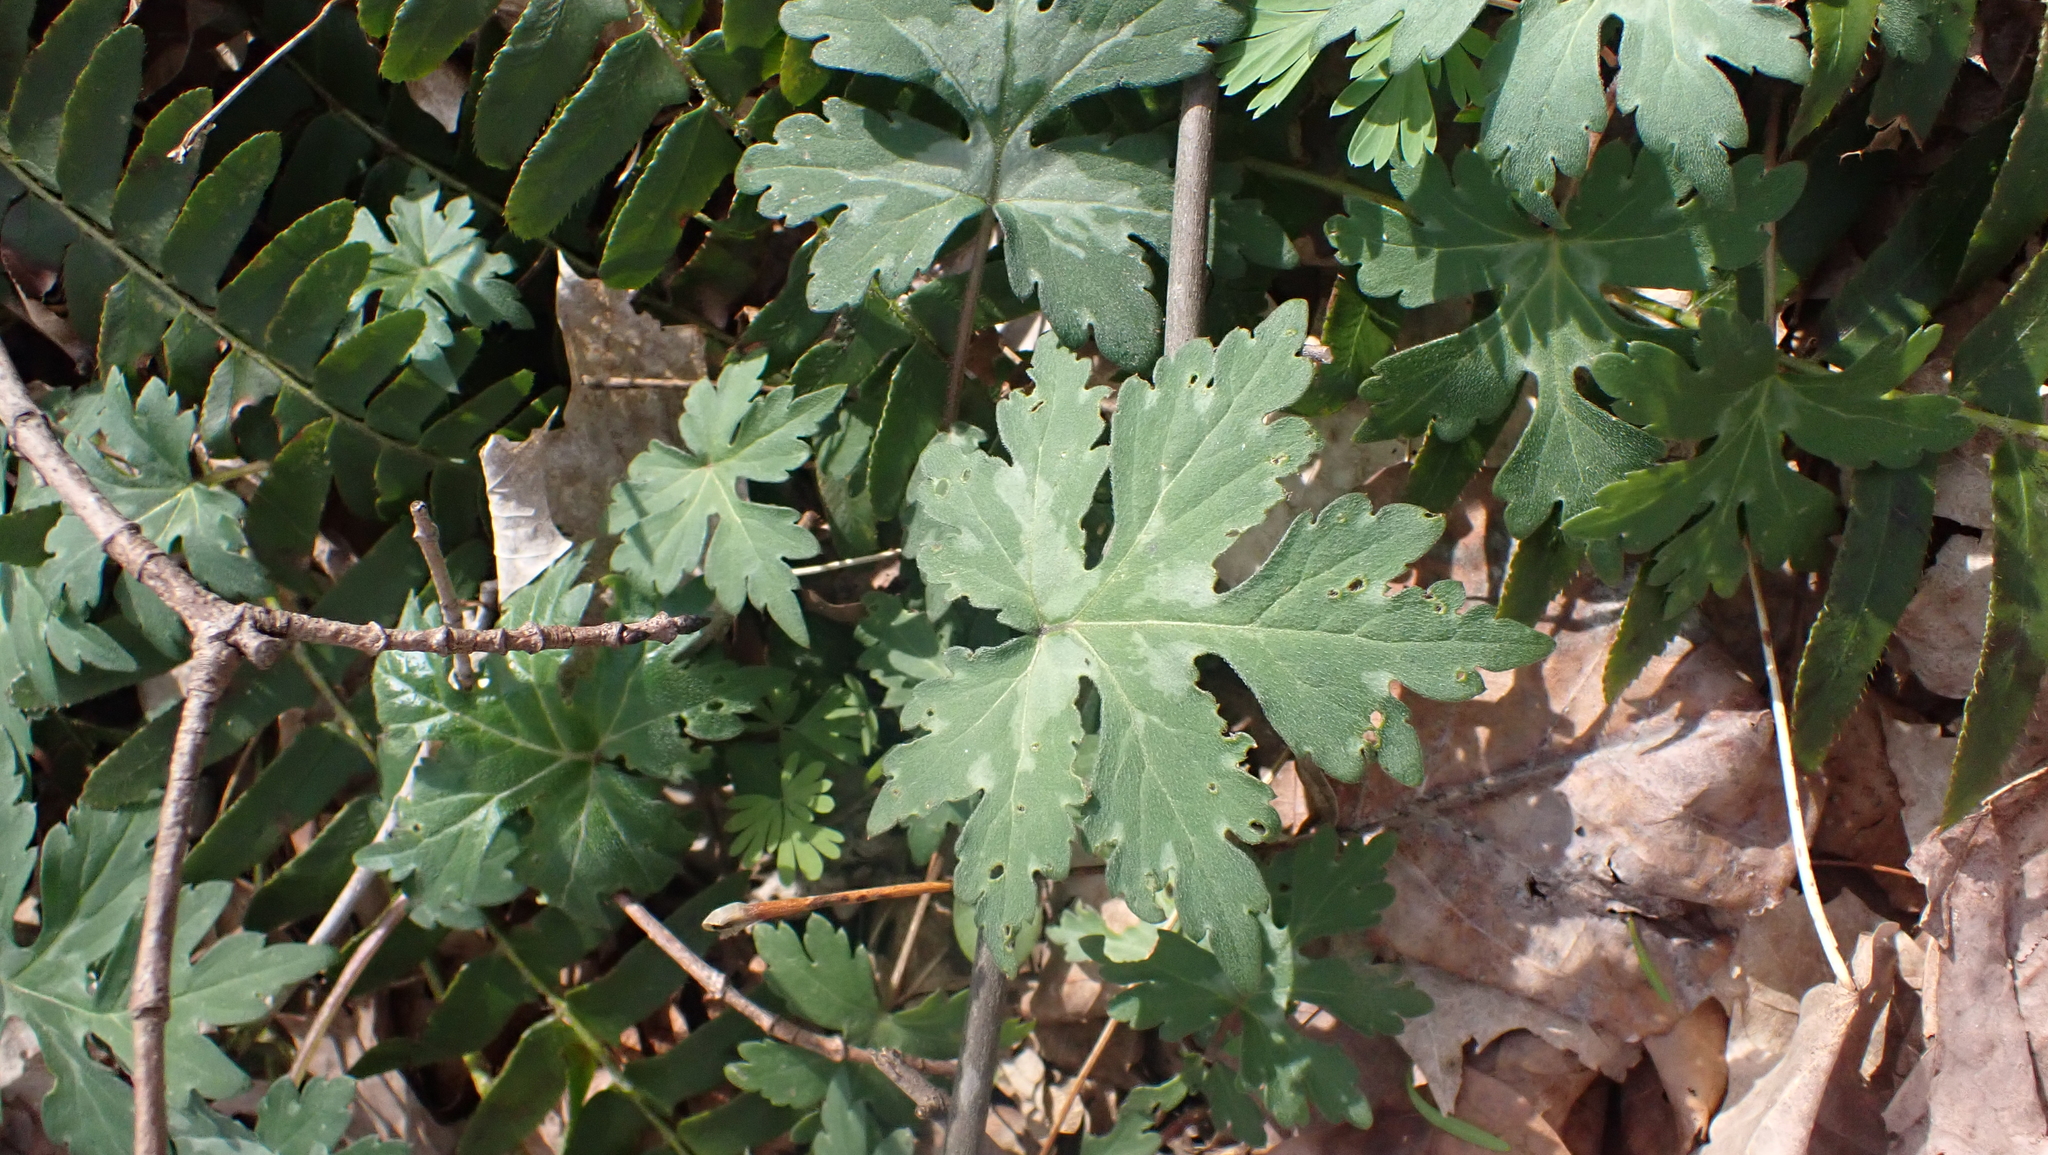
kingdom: Plantae
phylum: Tracheophyta
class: Magnoliopsida
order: Boraginales
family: Hydrophyllaceae
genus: Hydrophyllum
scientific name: Hydrophyllum canadense
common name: Canada waterleaf
